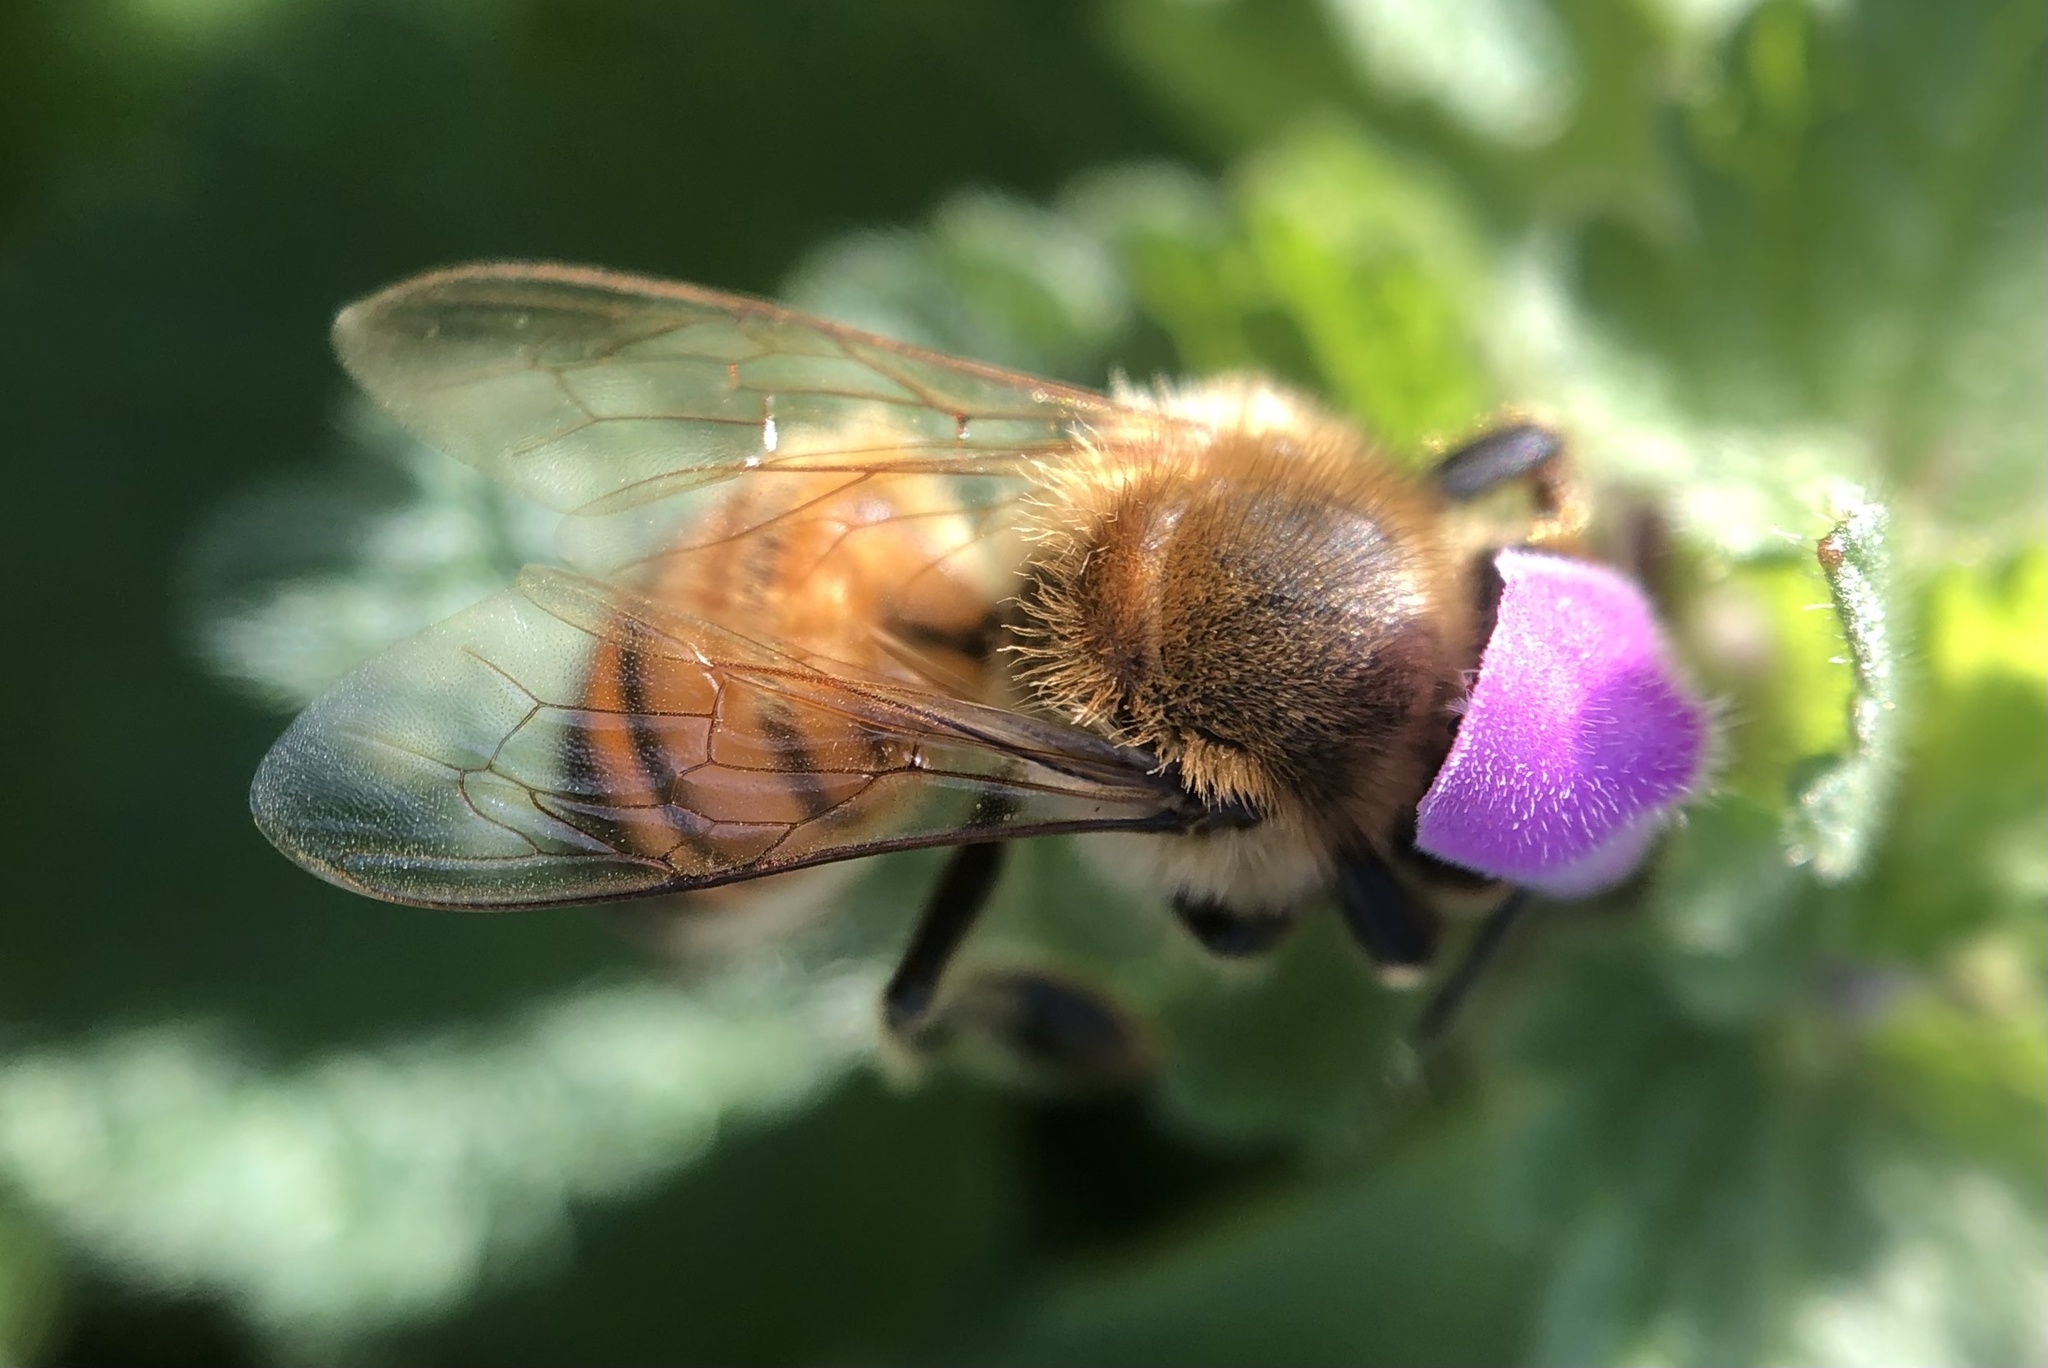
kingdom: Animalia
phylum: Arthropoda
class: Insecta
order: Hymenoptera
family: Apidae
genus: Apis
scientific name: Apis mellifera
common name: Honey bee
